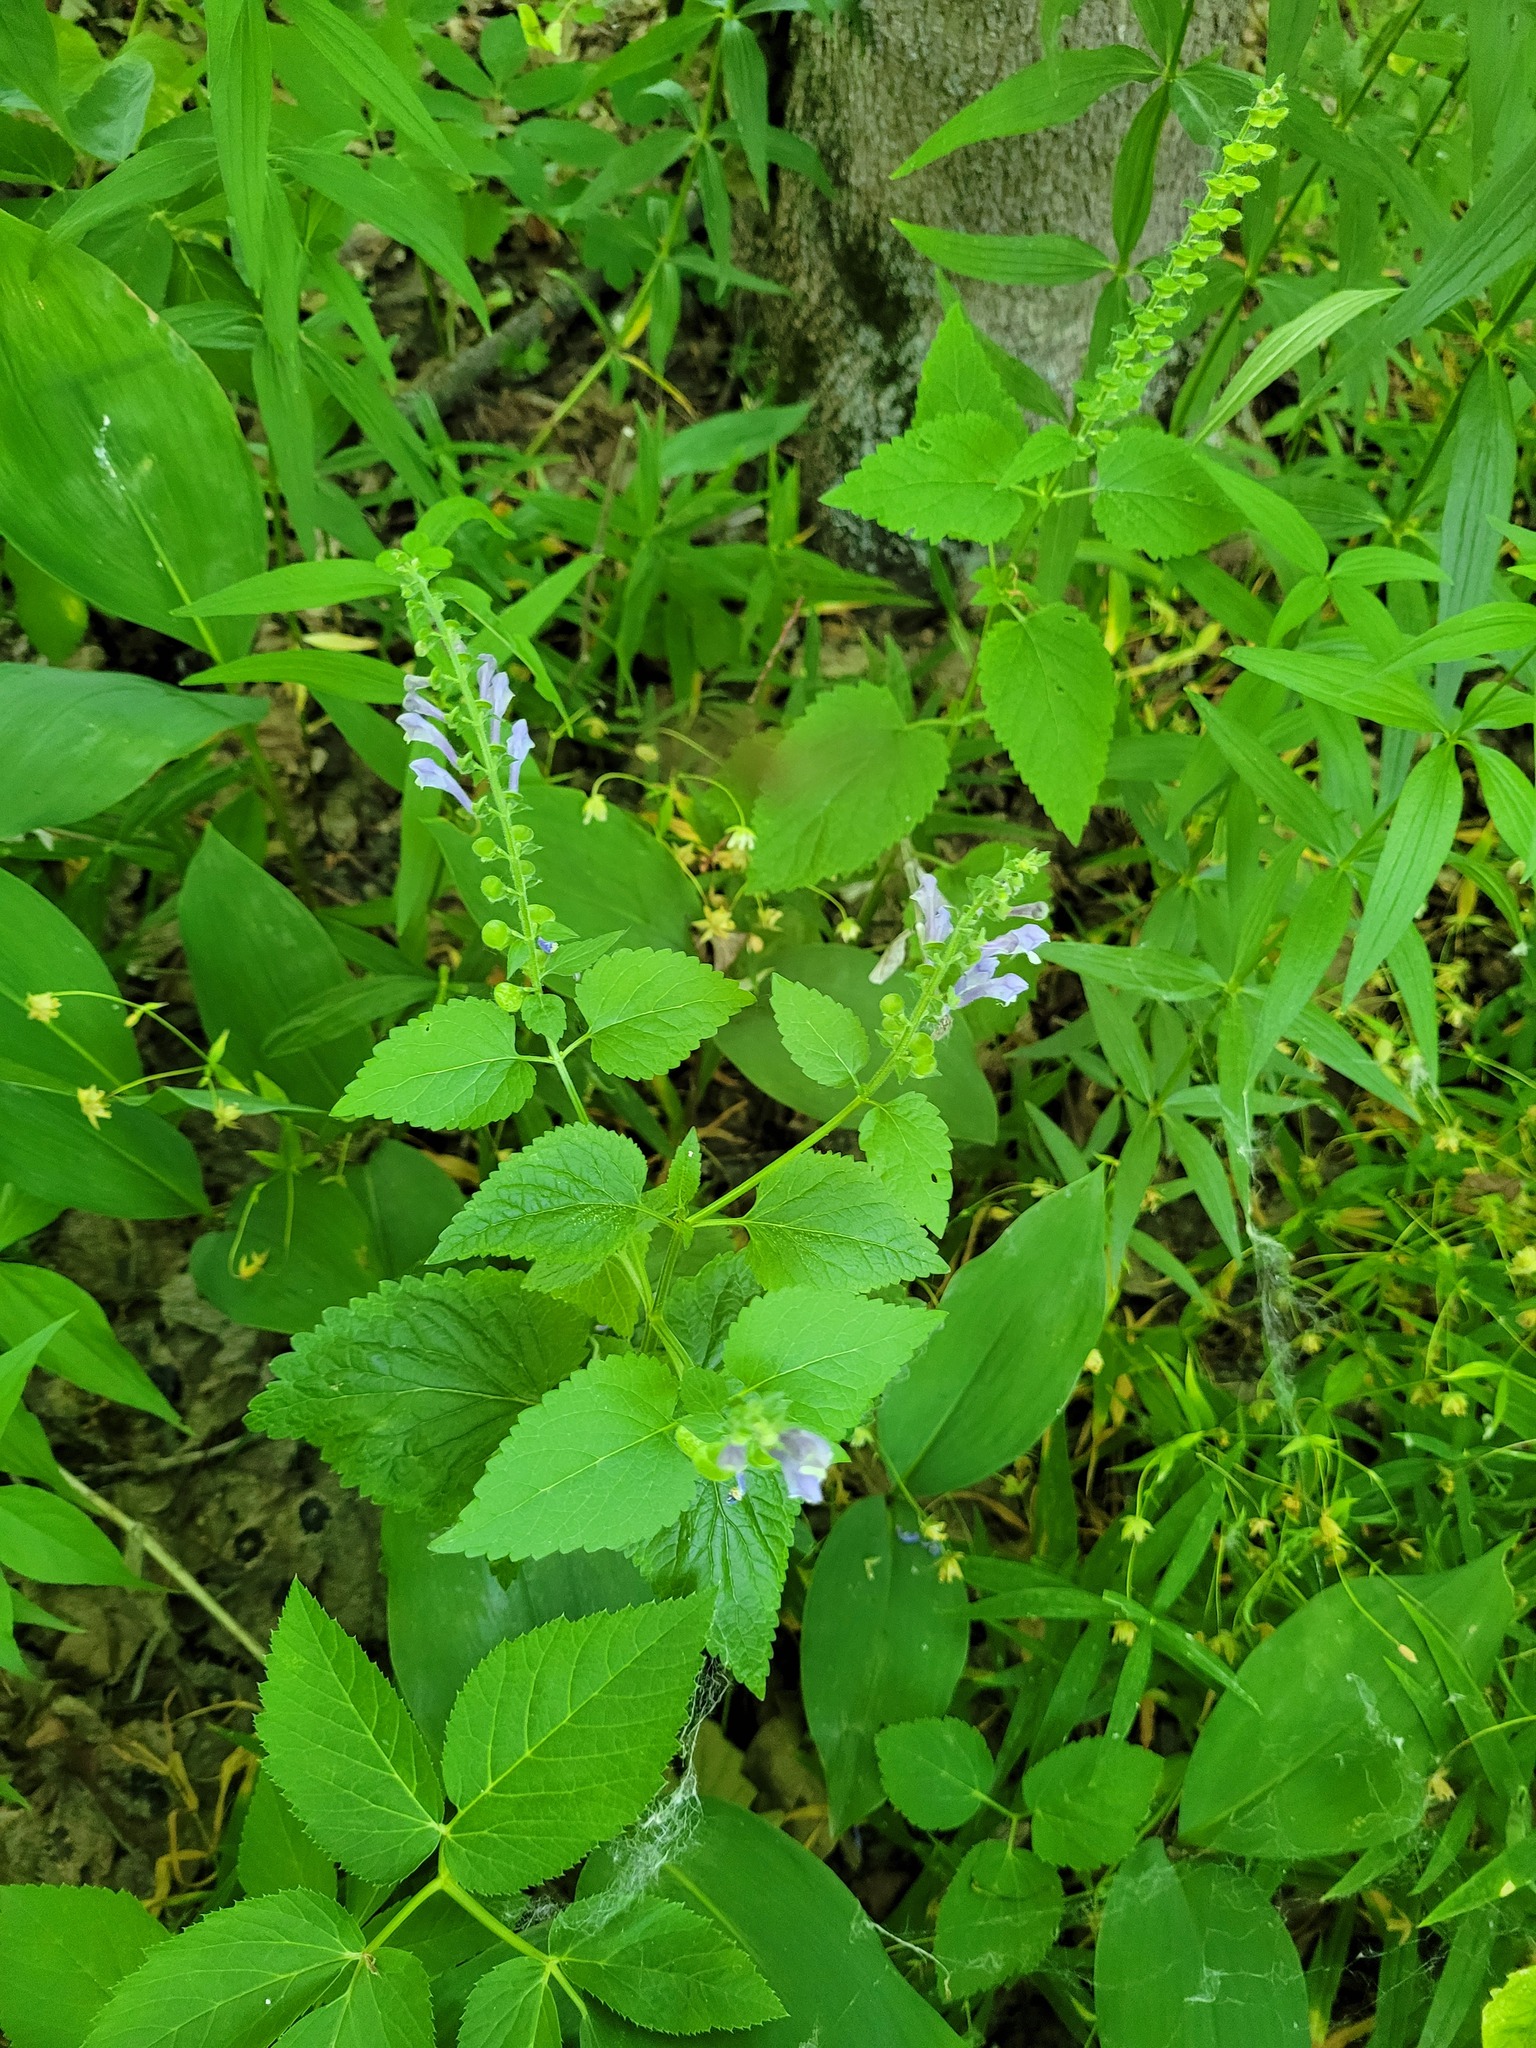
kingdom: Plantae
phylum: Tracheophyta
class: Magnoliopsida
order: Lamiales
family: Lamiaceae
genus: Scutellaria
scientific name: Scutellaria altissima
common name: Somerset skullcap
